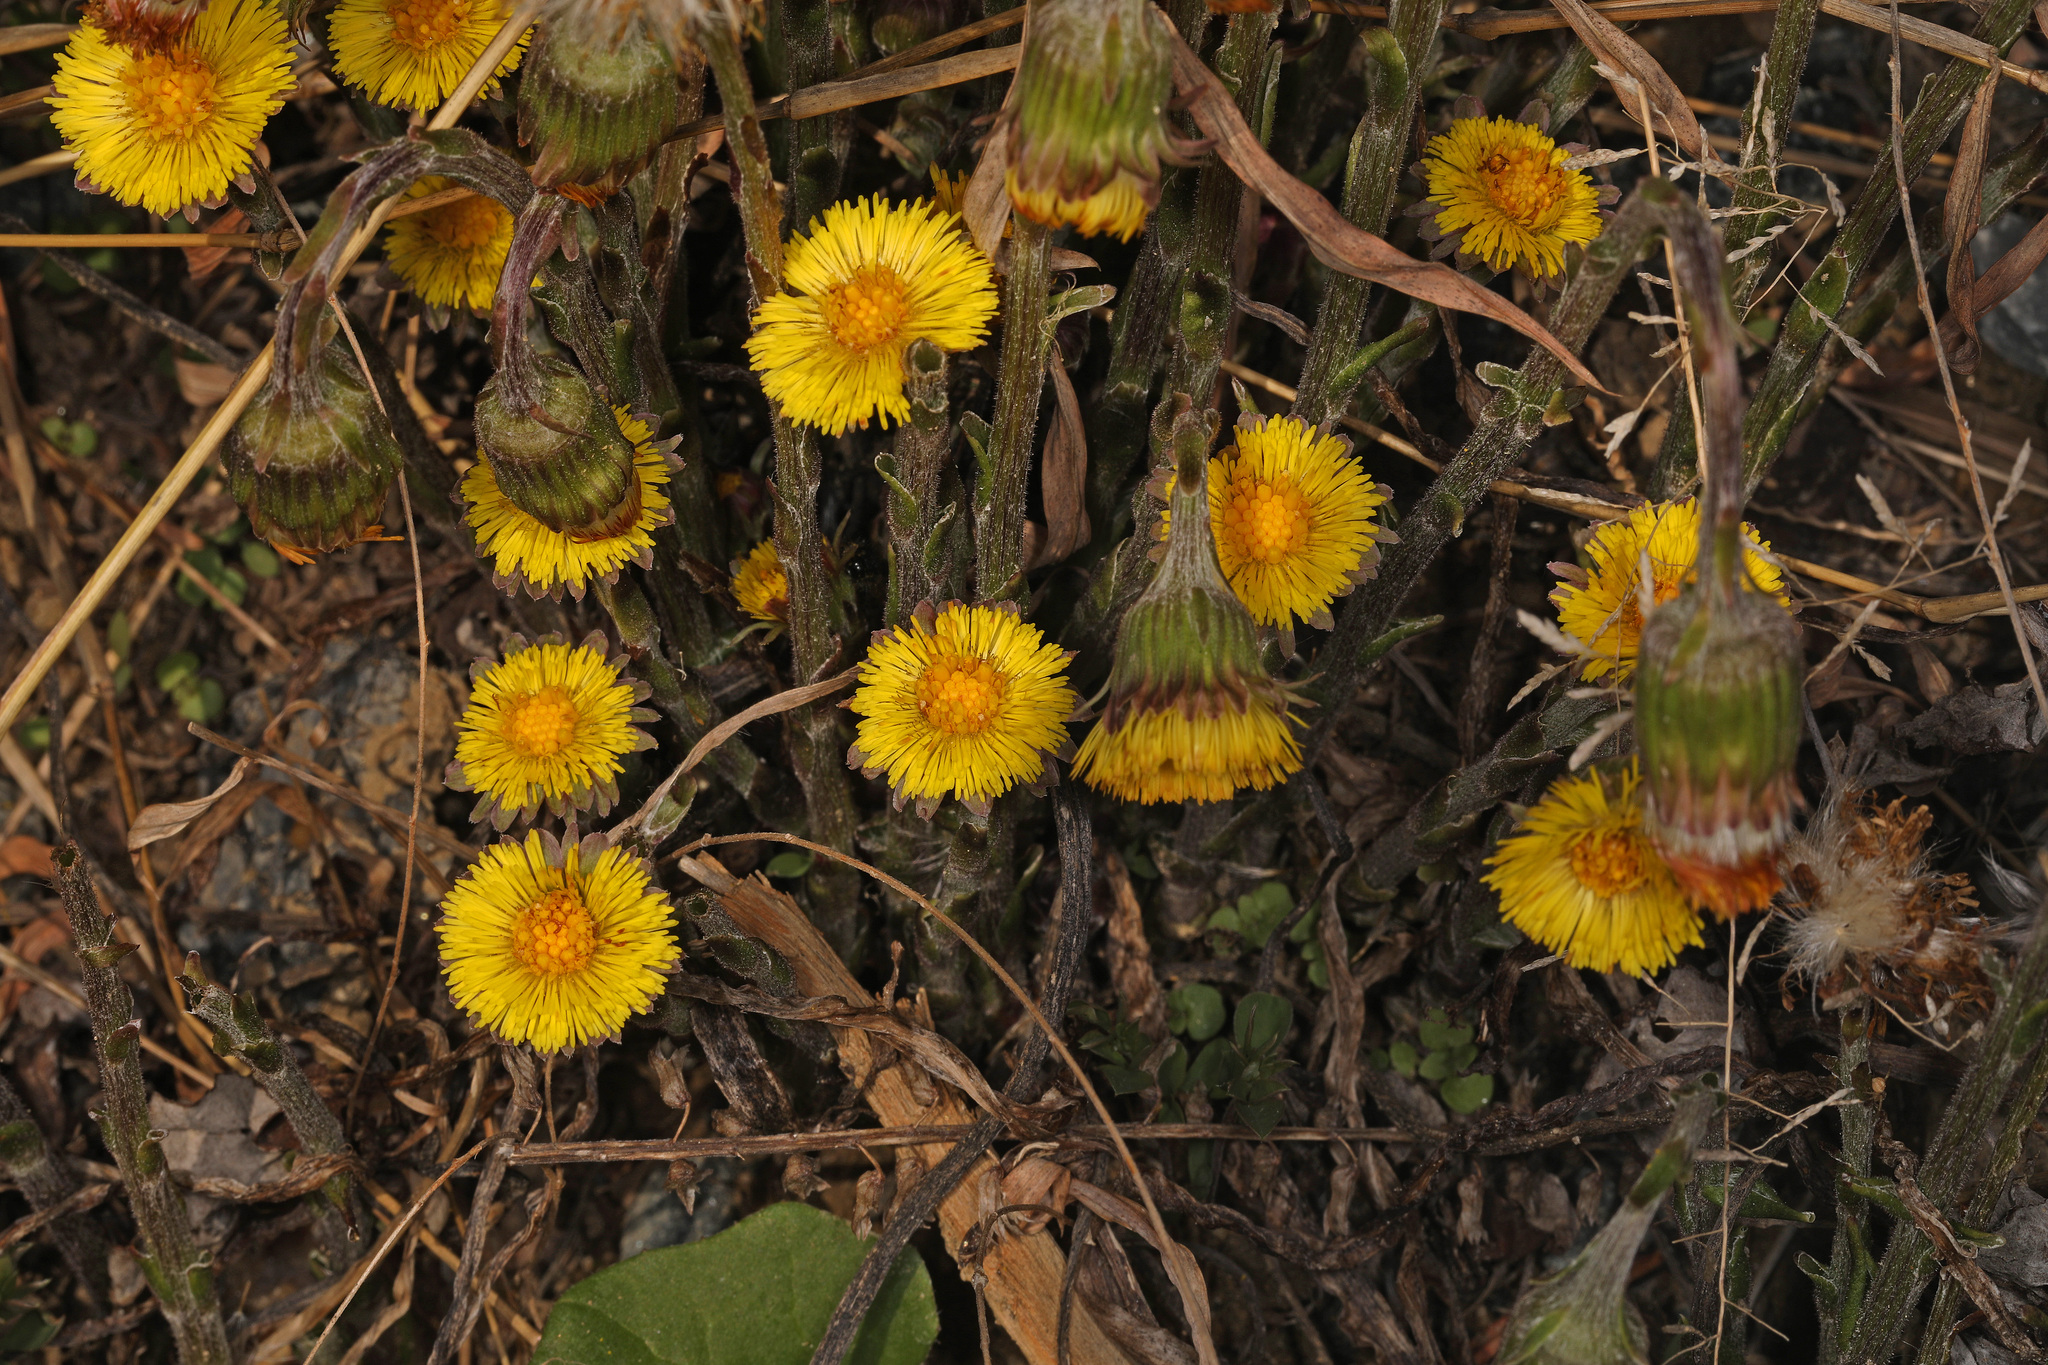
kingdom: Plantae
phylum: Tracheophyta
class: Magnoliopsida
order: Asterales
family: Asteraceae
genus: Tussilago
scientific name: Tussilago farfara
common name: Coltsfoot
